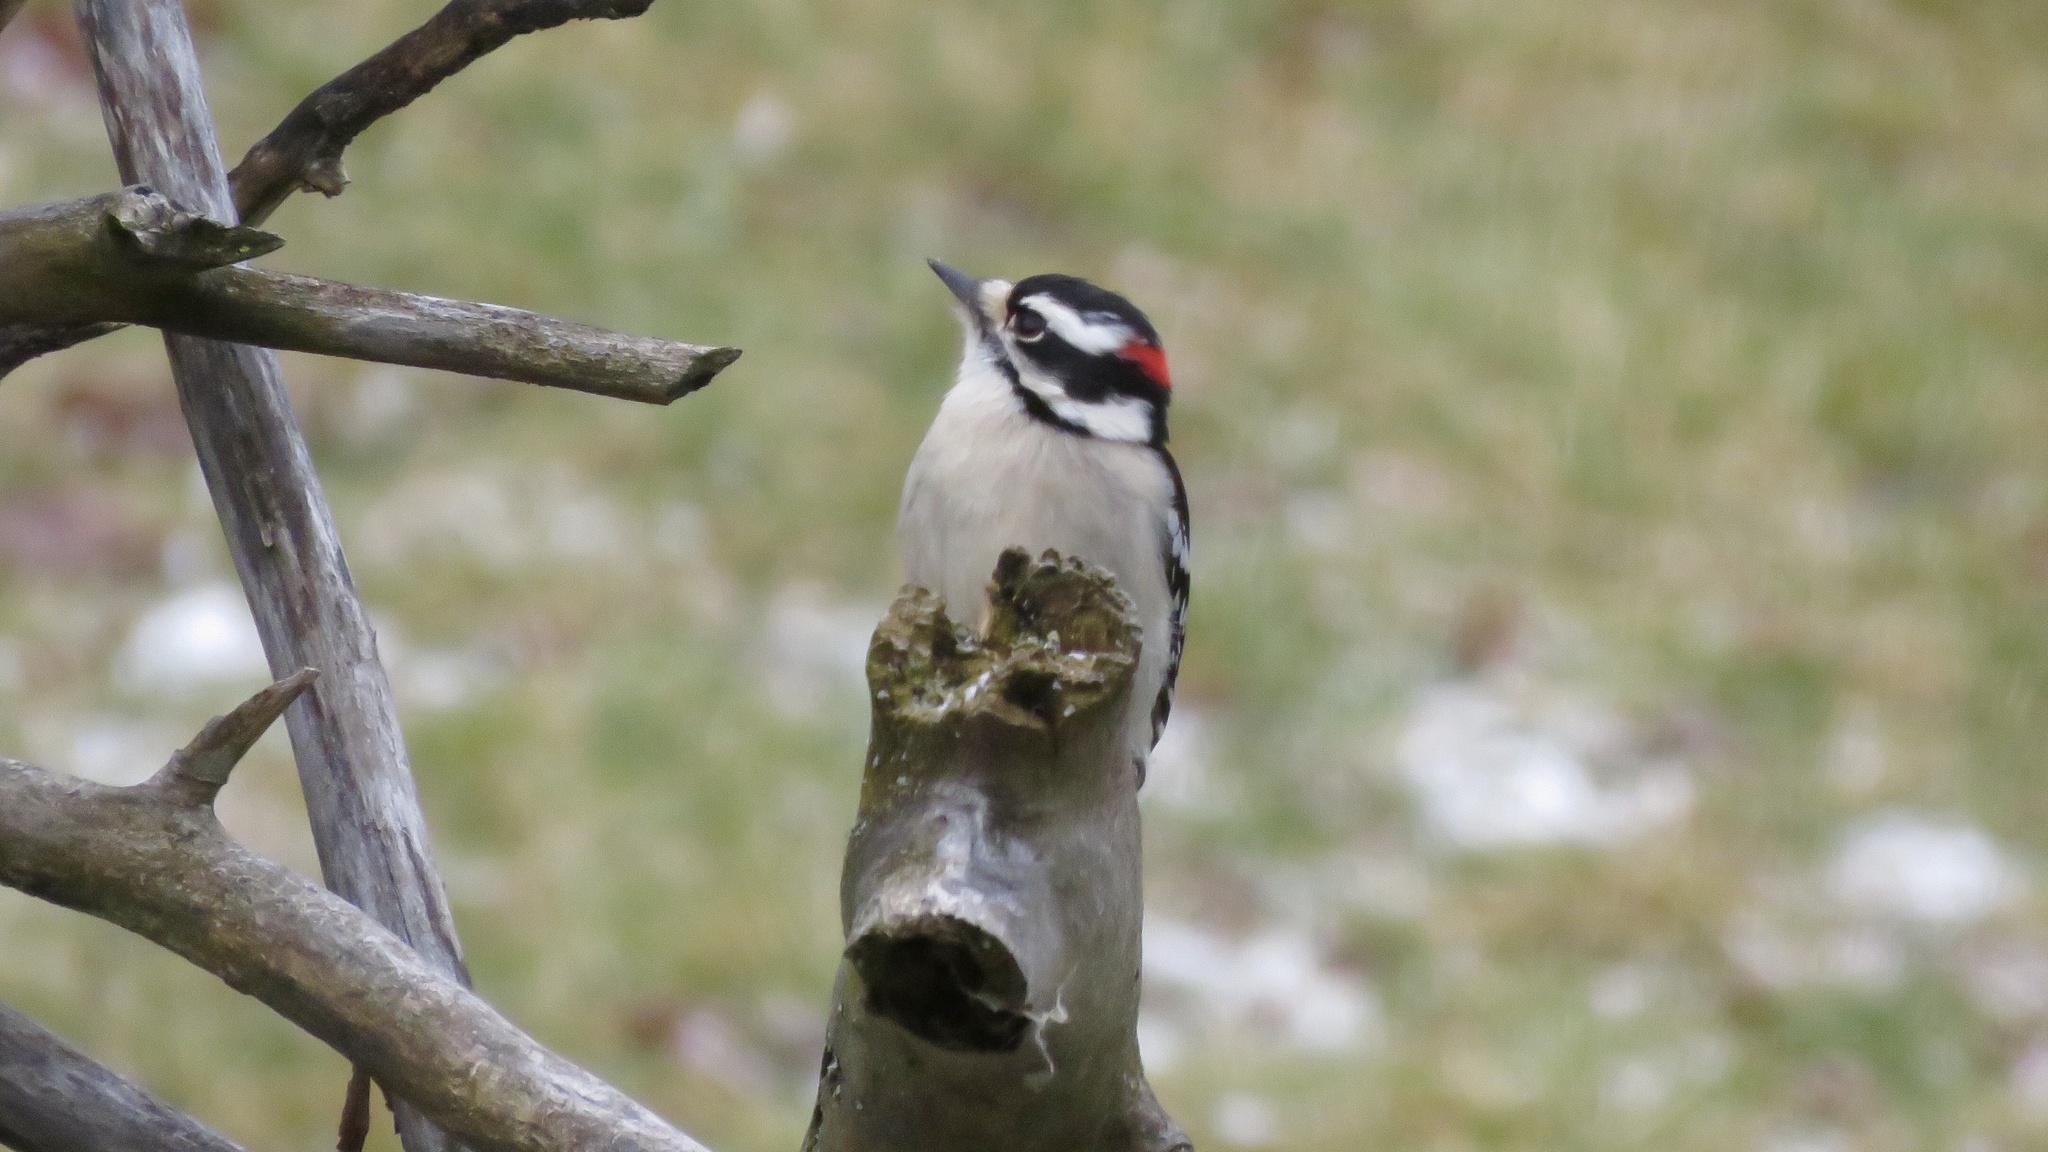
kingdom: Animalia
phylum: Chordata
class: Aves
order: Piciformes
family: Picidae
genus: Dryobates
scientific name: Dryobates pubescens
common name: Downy woodpecker
